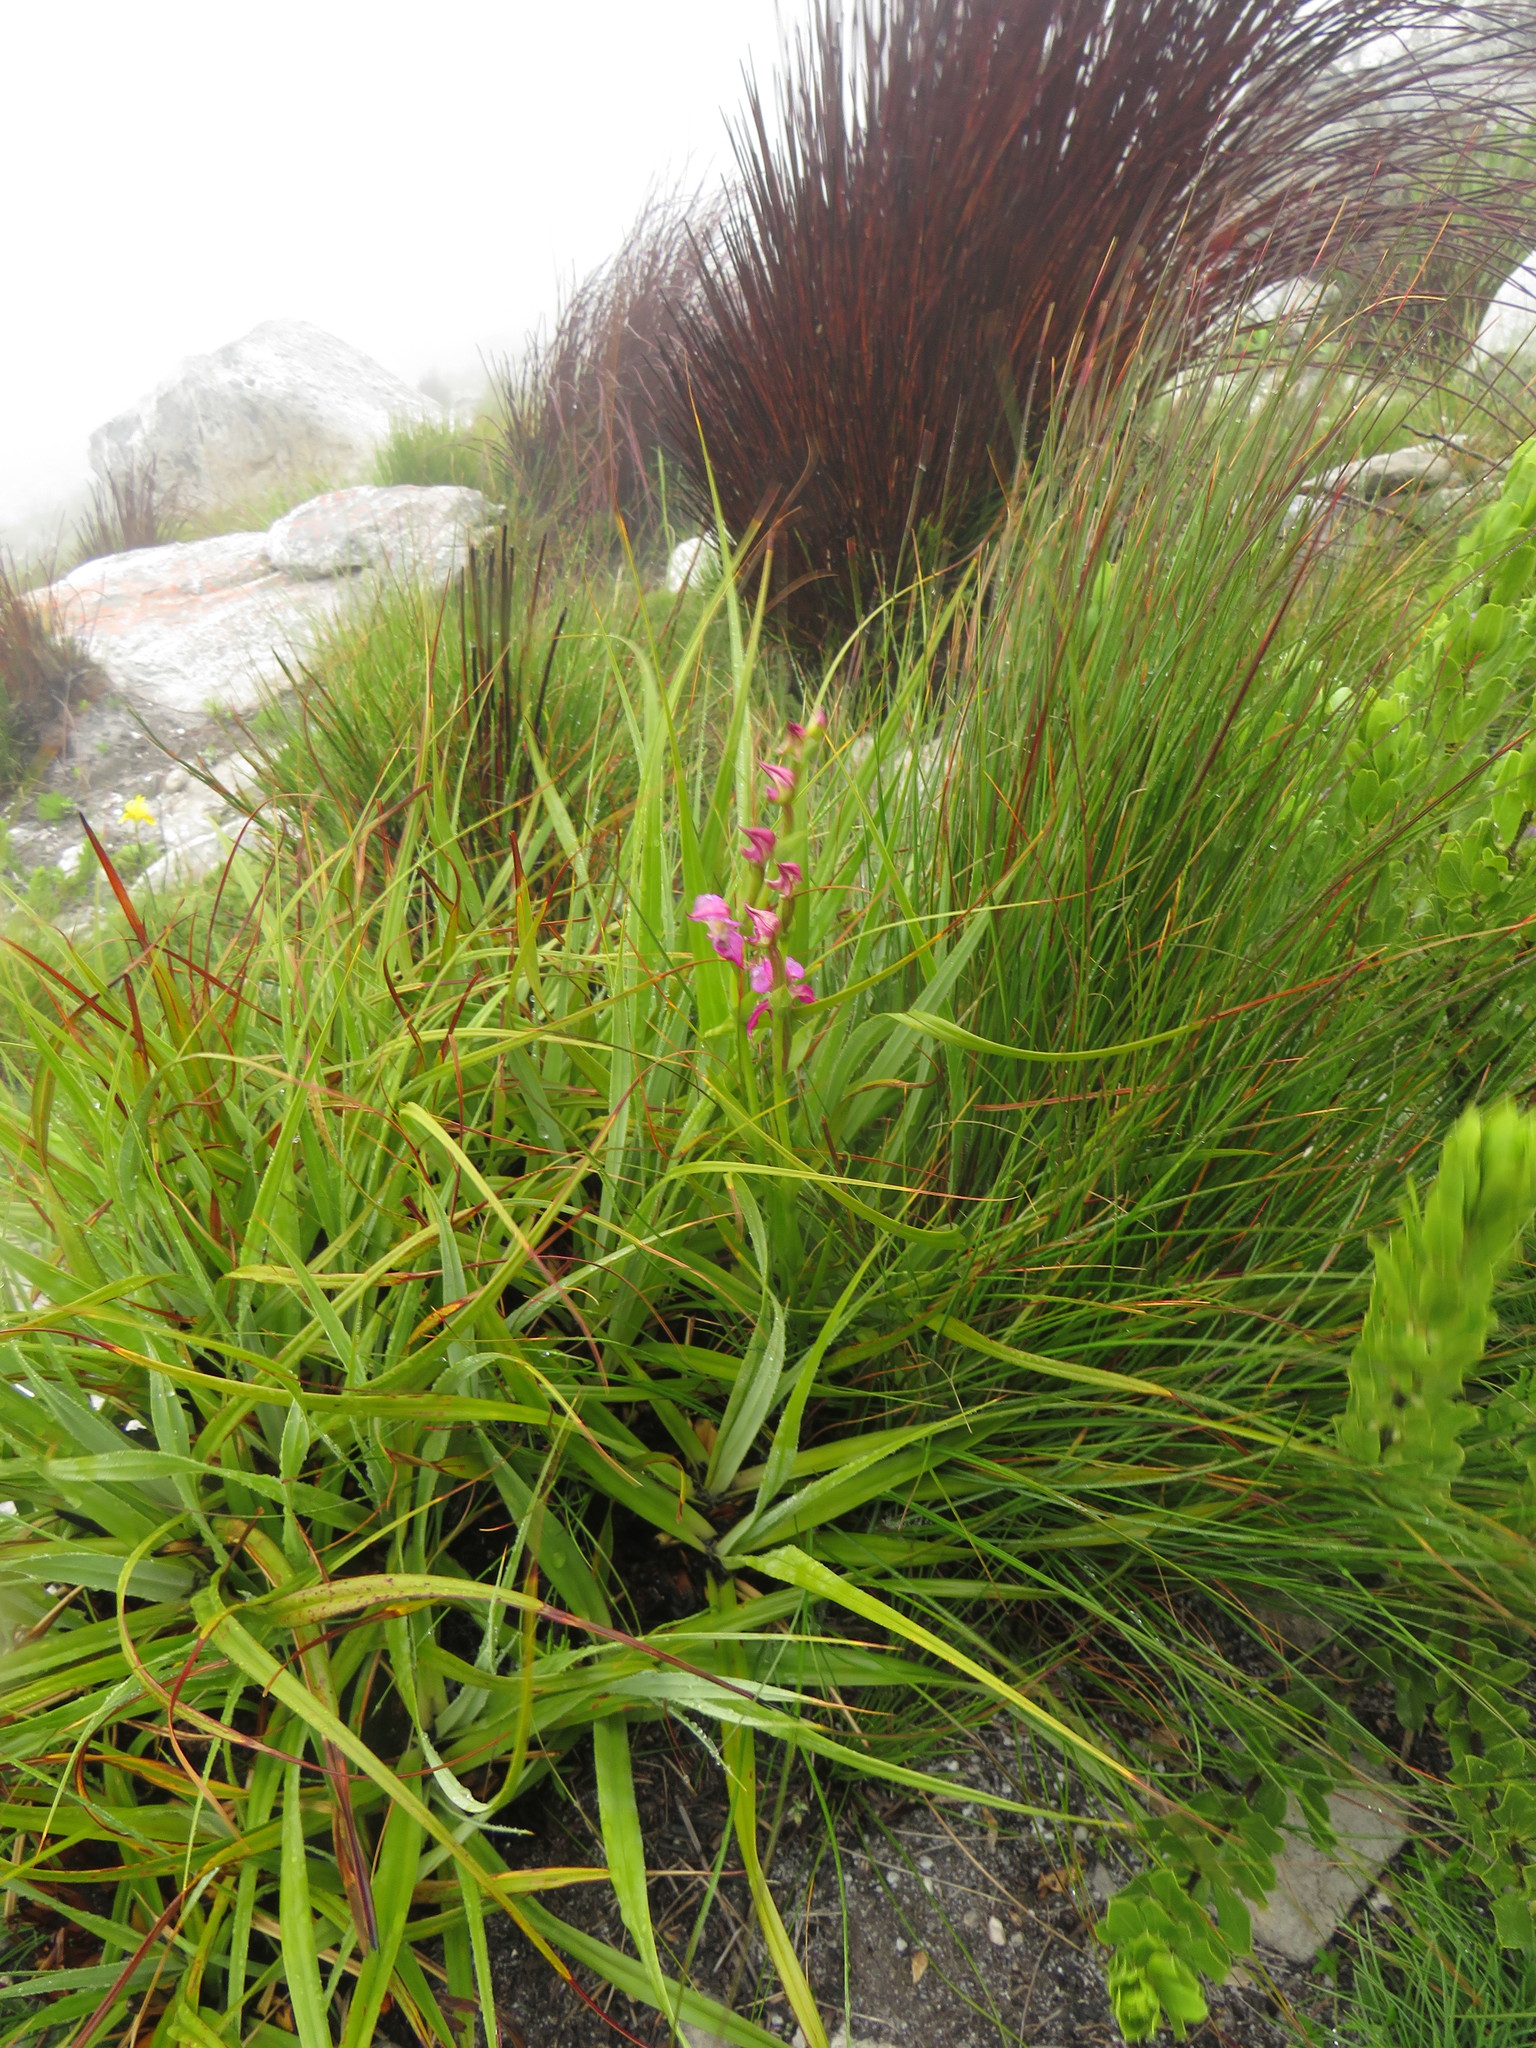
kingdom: Plantae
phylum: Tracheophyta
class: Liliopsida
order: Asparagales
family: Orchidaceae
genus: Disperis
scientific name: Disperis paludosa
